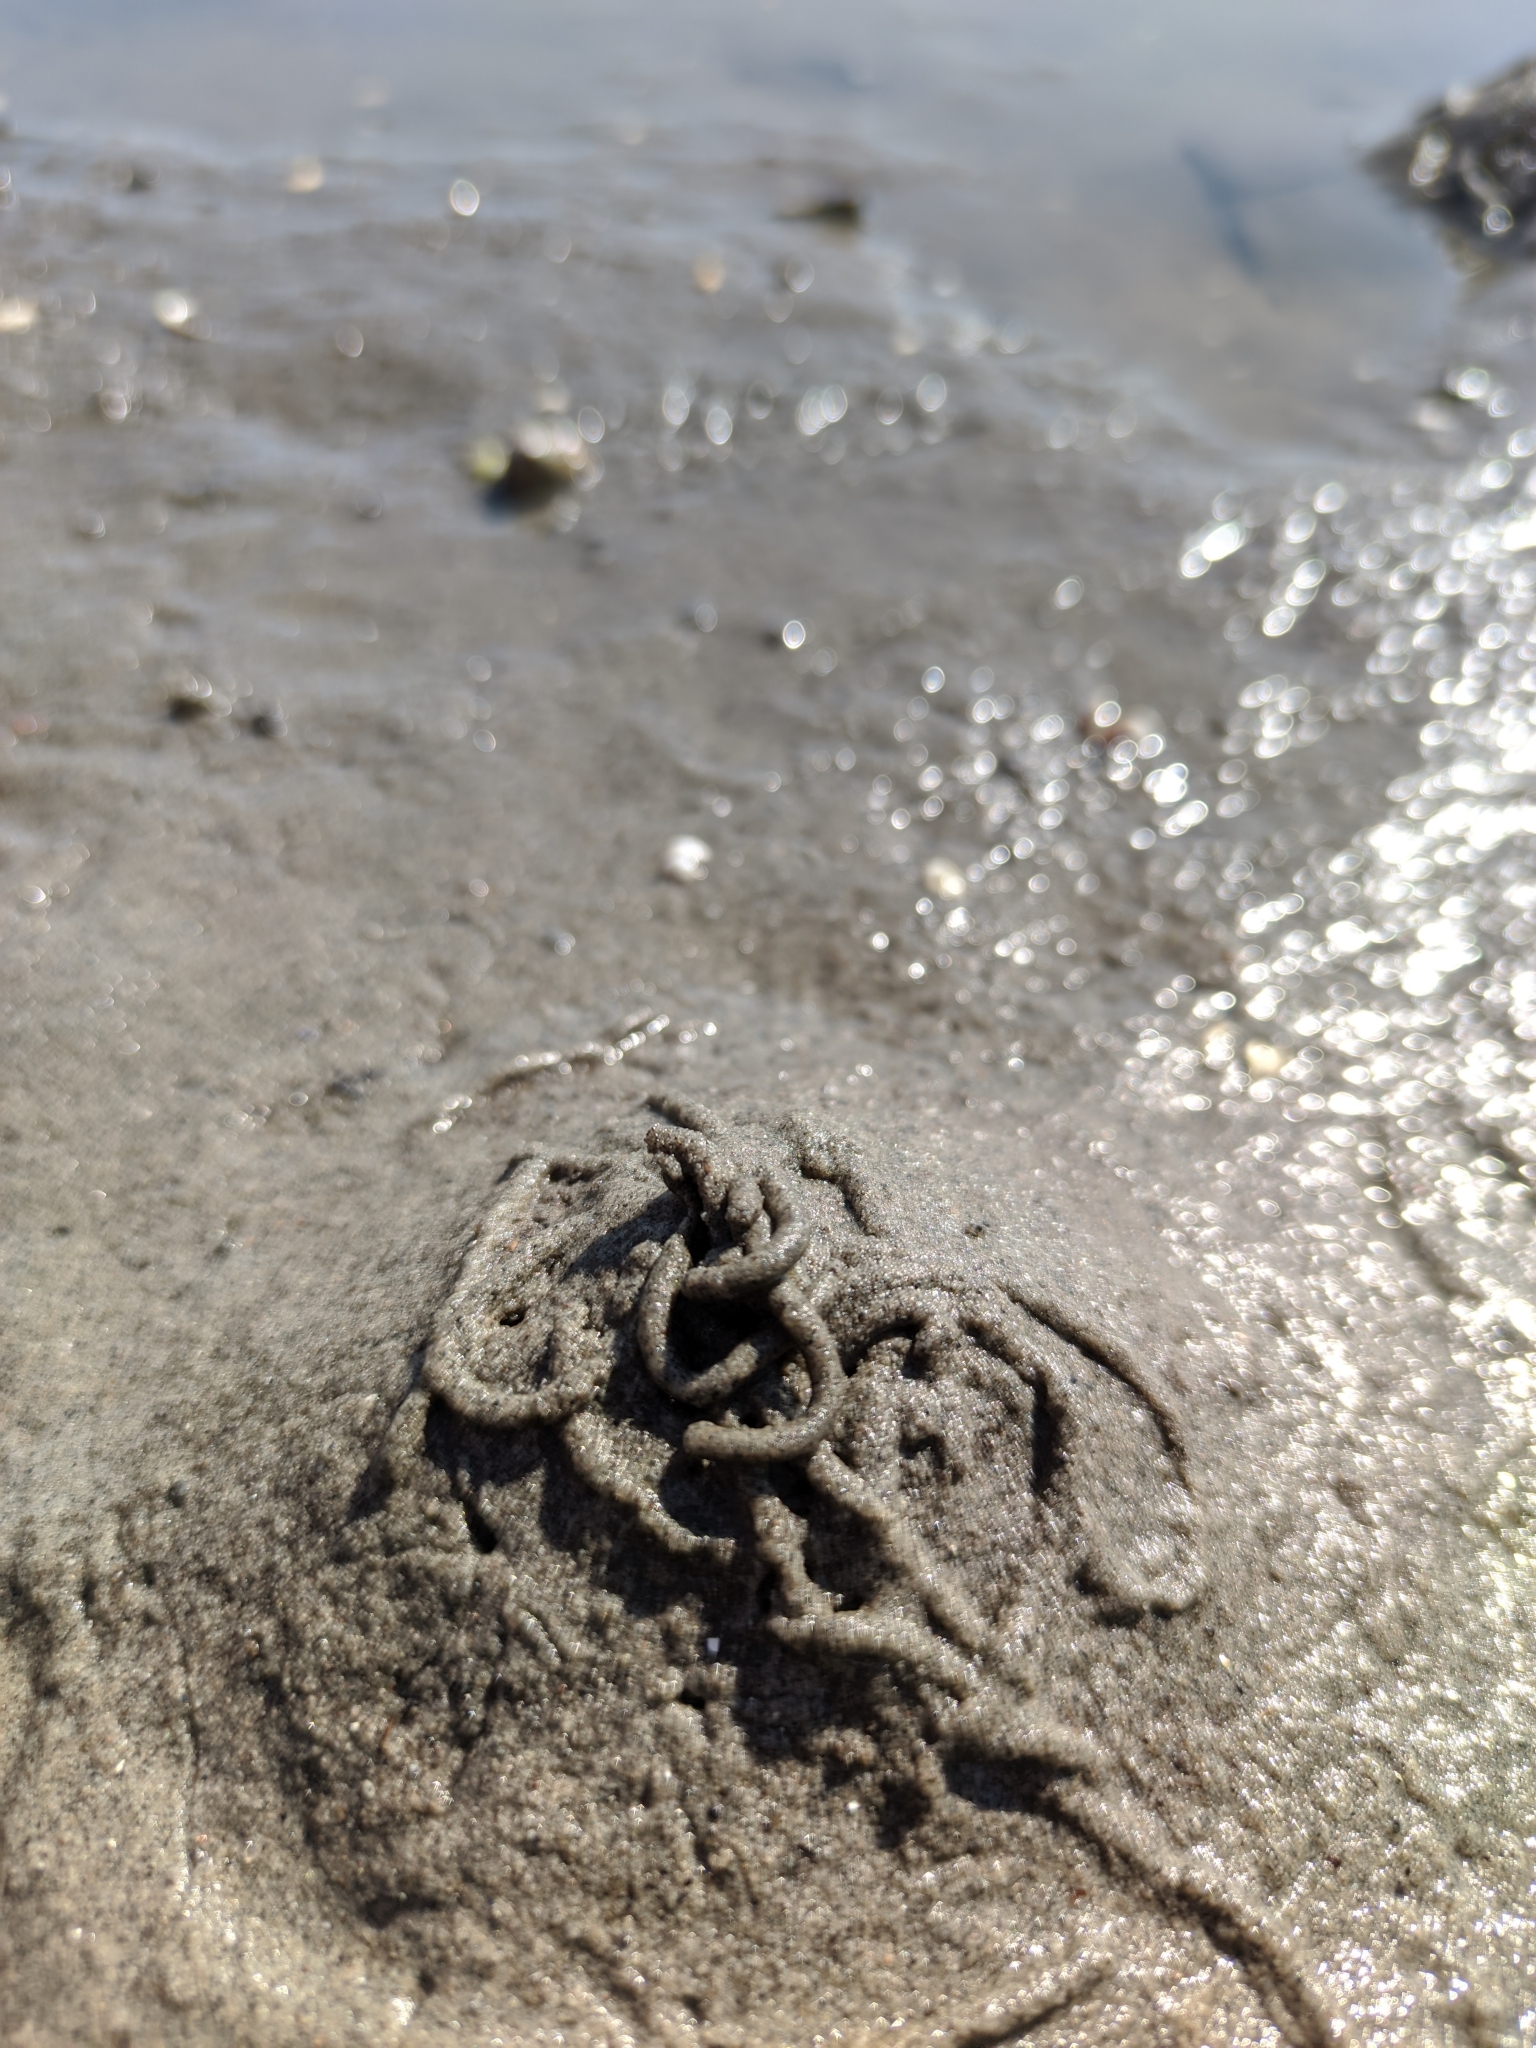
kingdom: Animalia
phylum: Annelida
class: Polychaeta
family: Arenicolidae
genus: Arenicola
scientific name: Arenicola marina
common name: Blow lugworm
